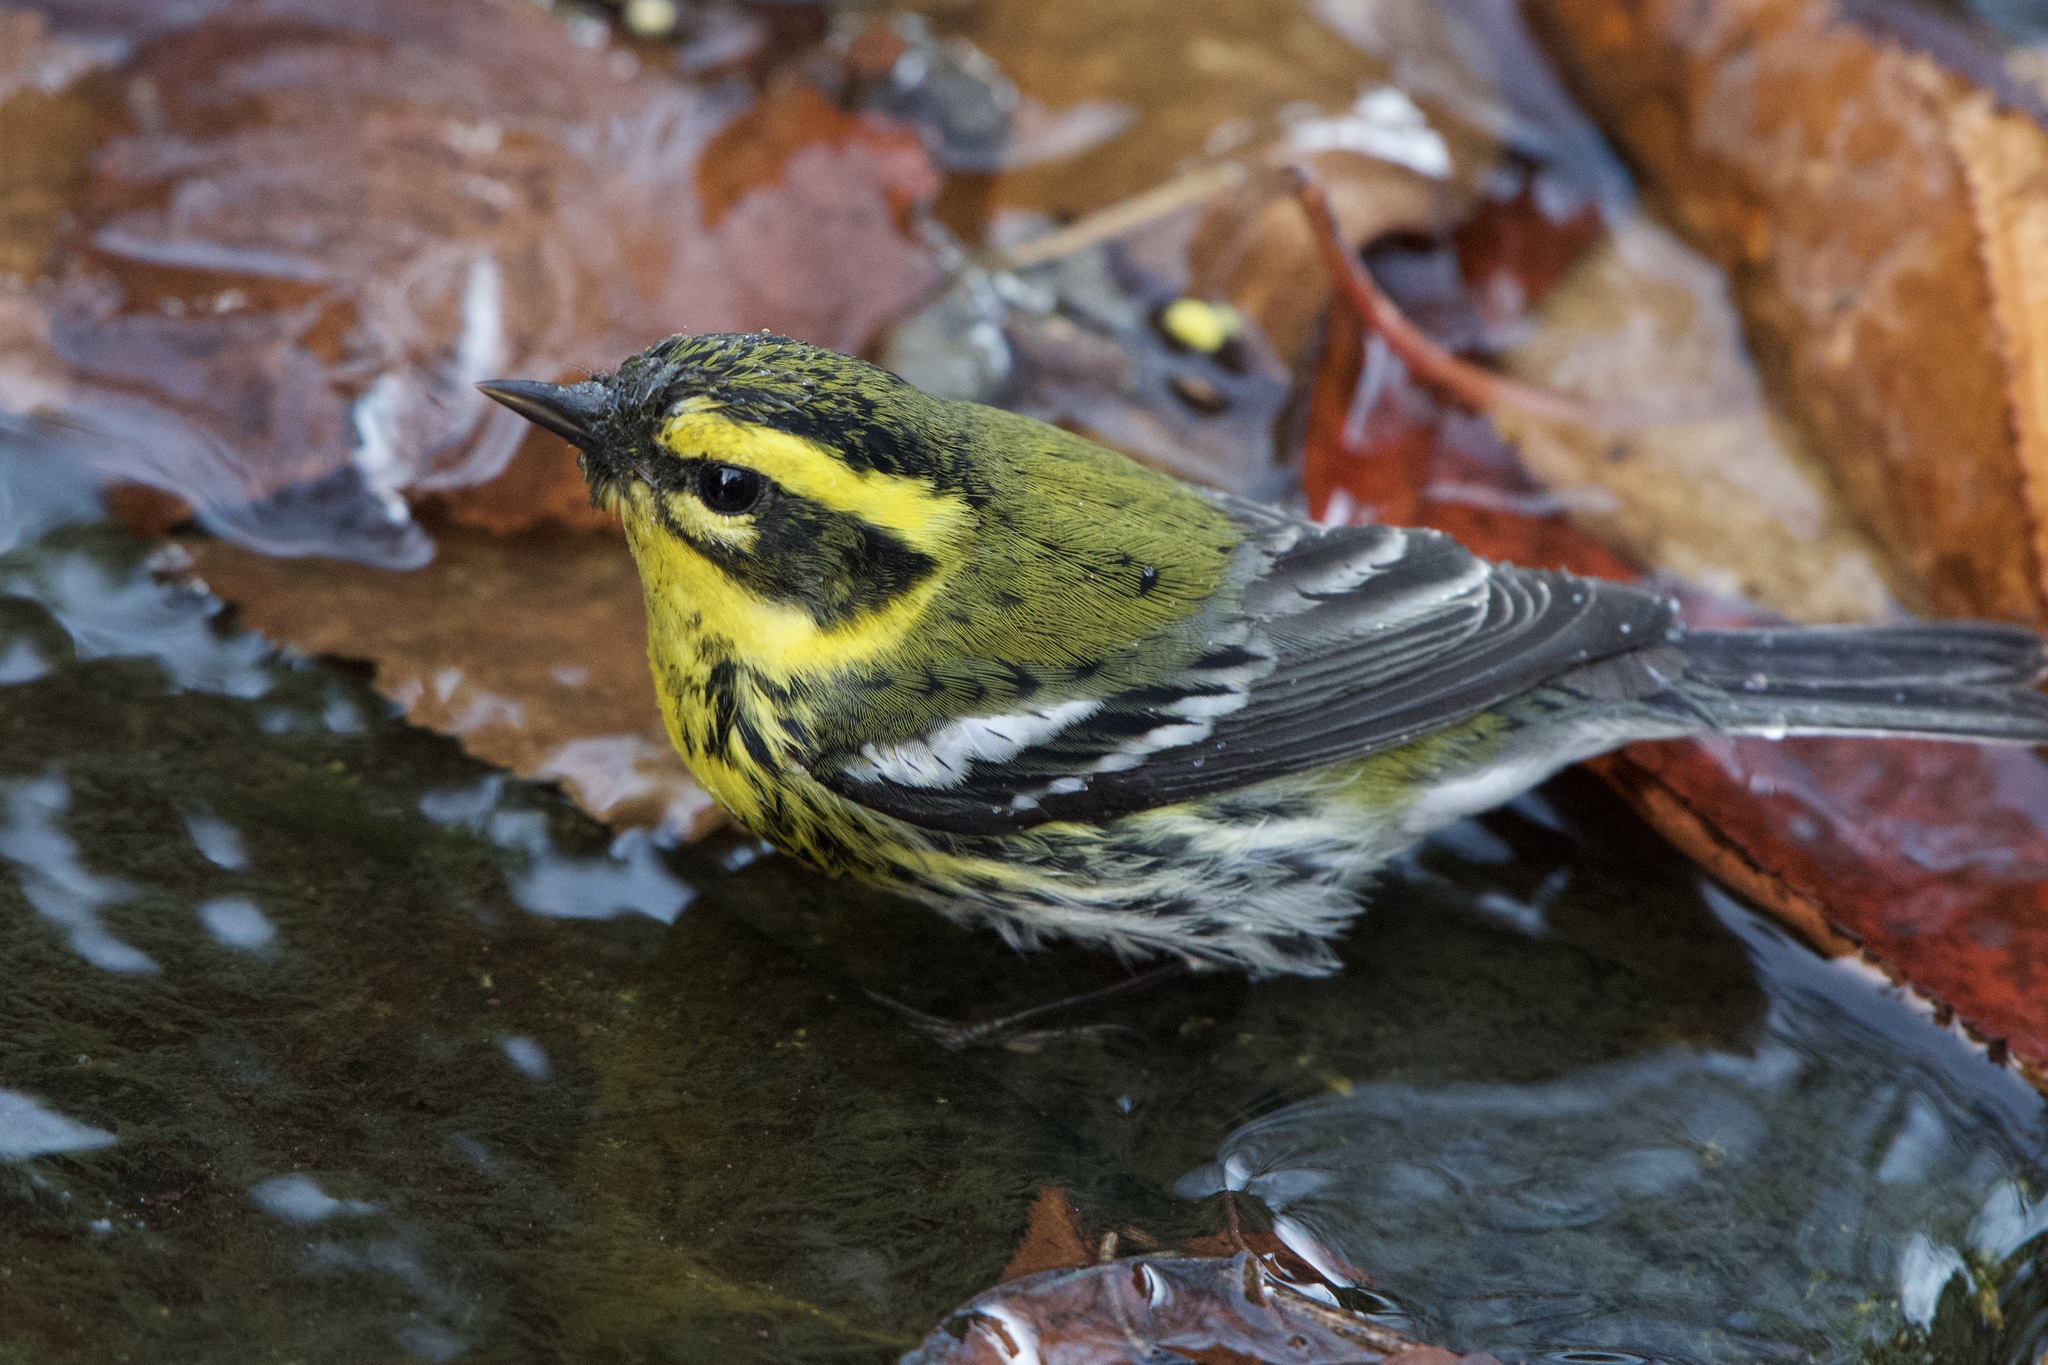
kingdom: Animalia
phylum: Chordata
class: Aves
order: Passeriformes
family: Parulidae
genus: Setophaga
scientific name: Setophaga townsendi
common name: Townsend's warbler
